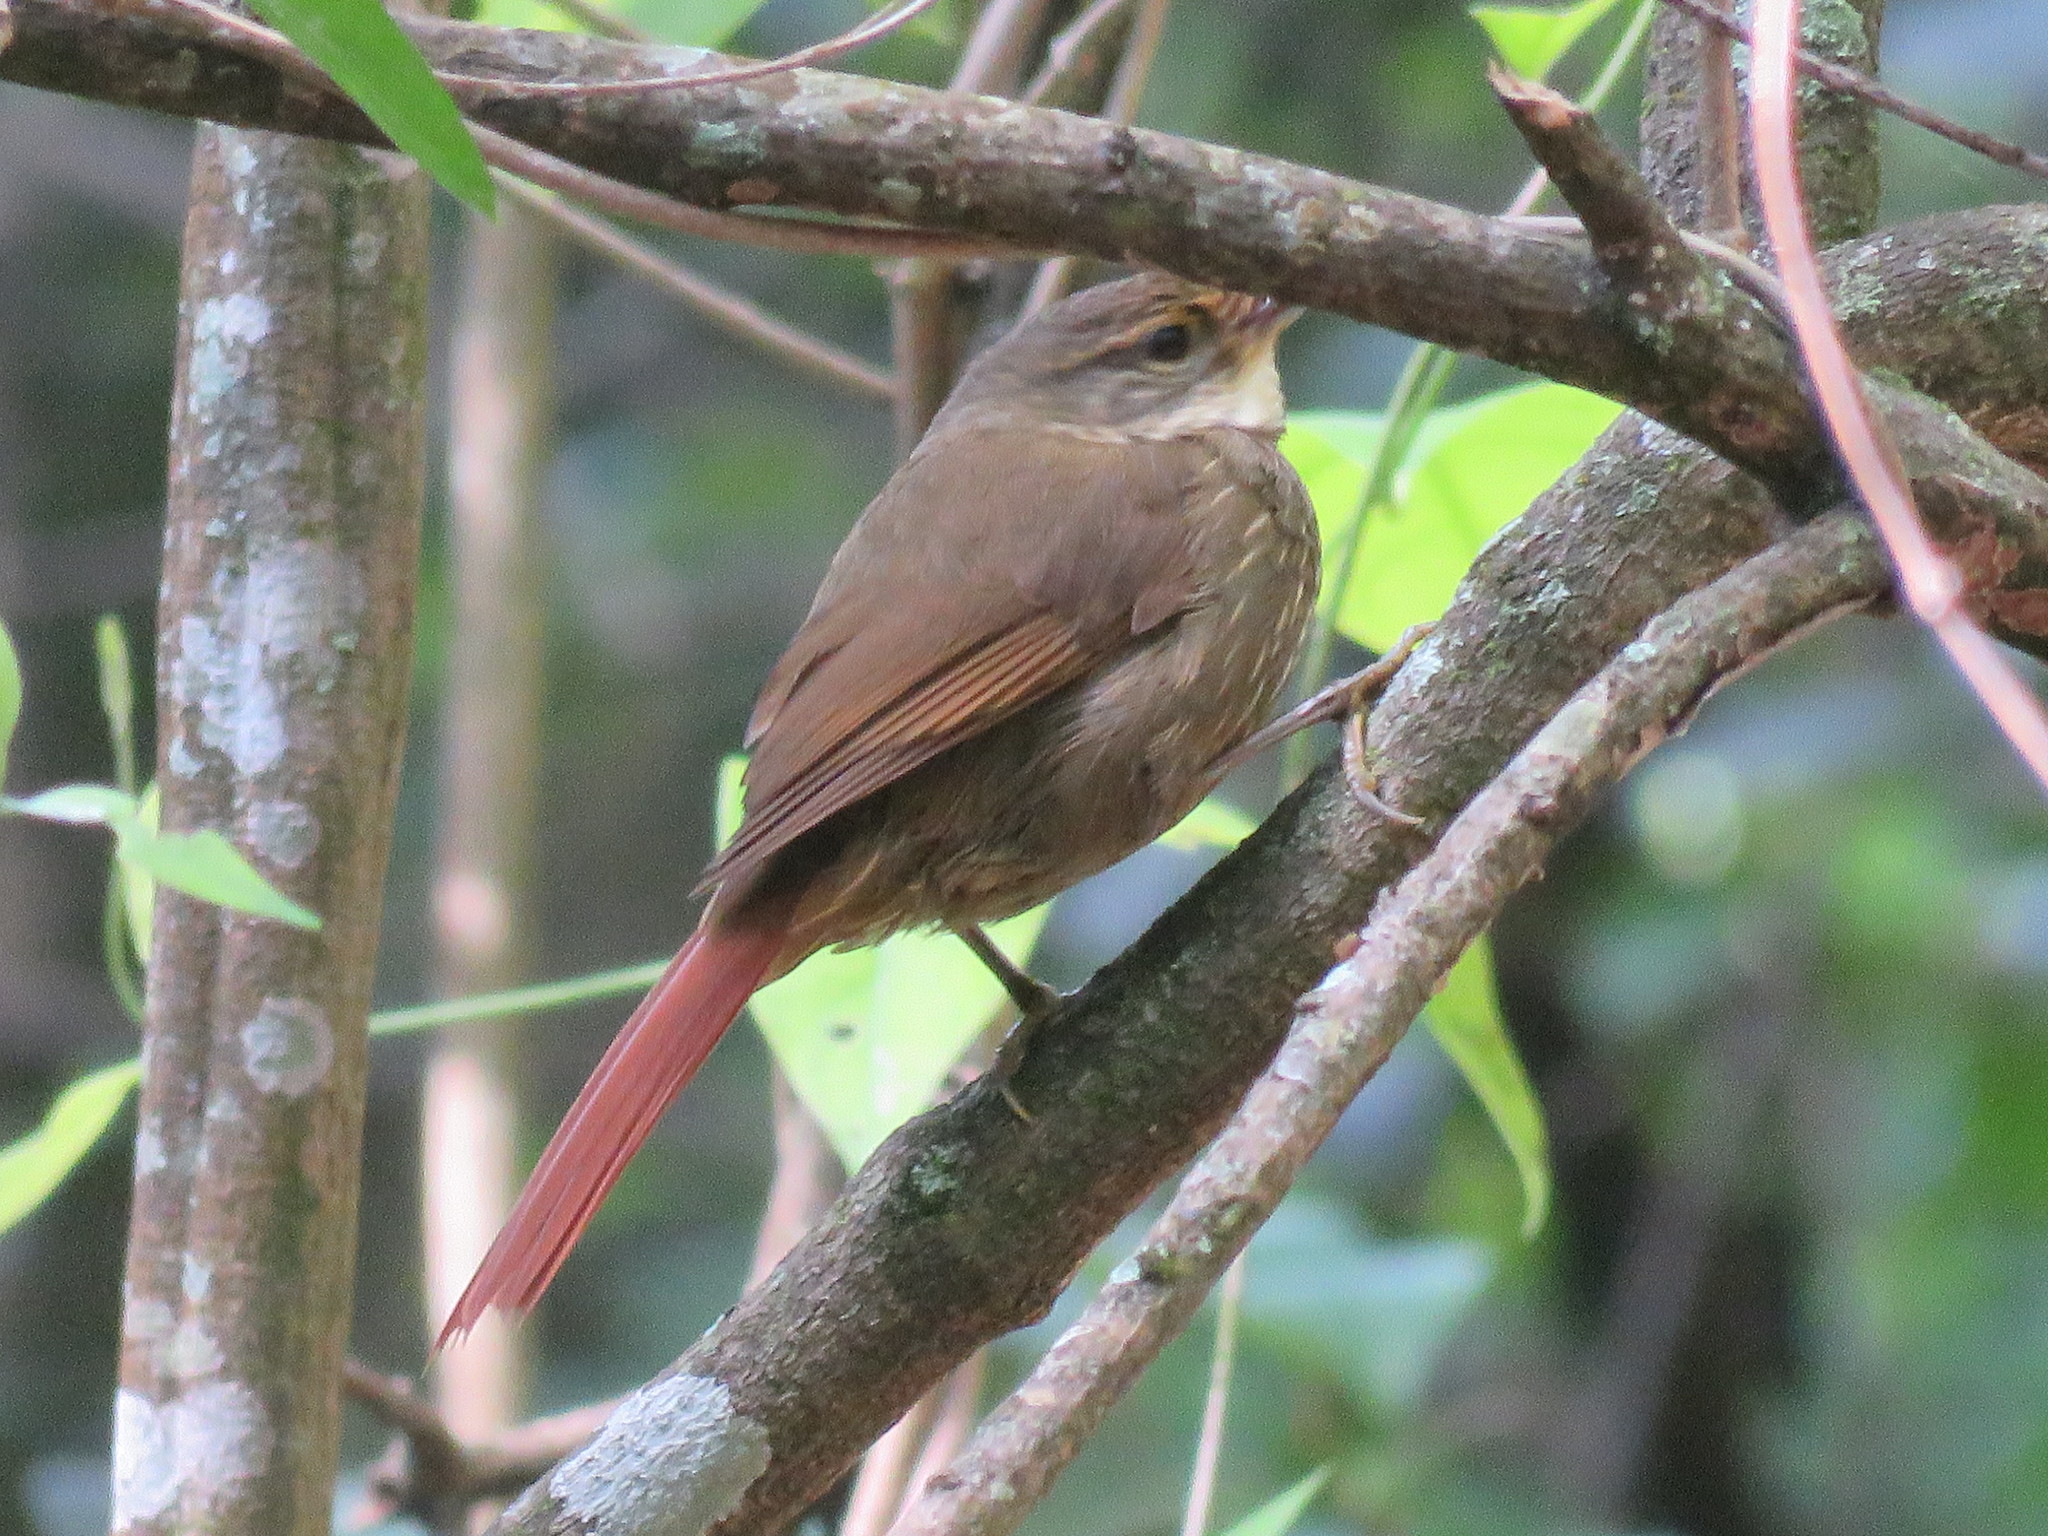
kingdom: Animalia
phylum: Chordata
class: Aves
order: Passeriformes
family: Furnariidae
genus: Syndactyla
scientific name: Syndactyla rufosuperciliata
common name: Buff-browed foliage-gleaner
